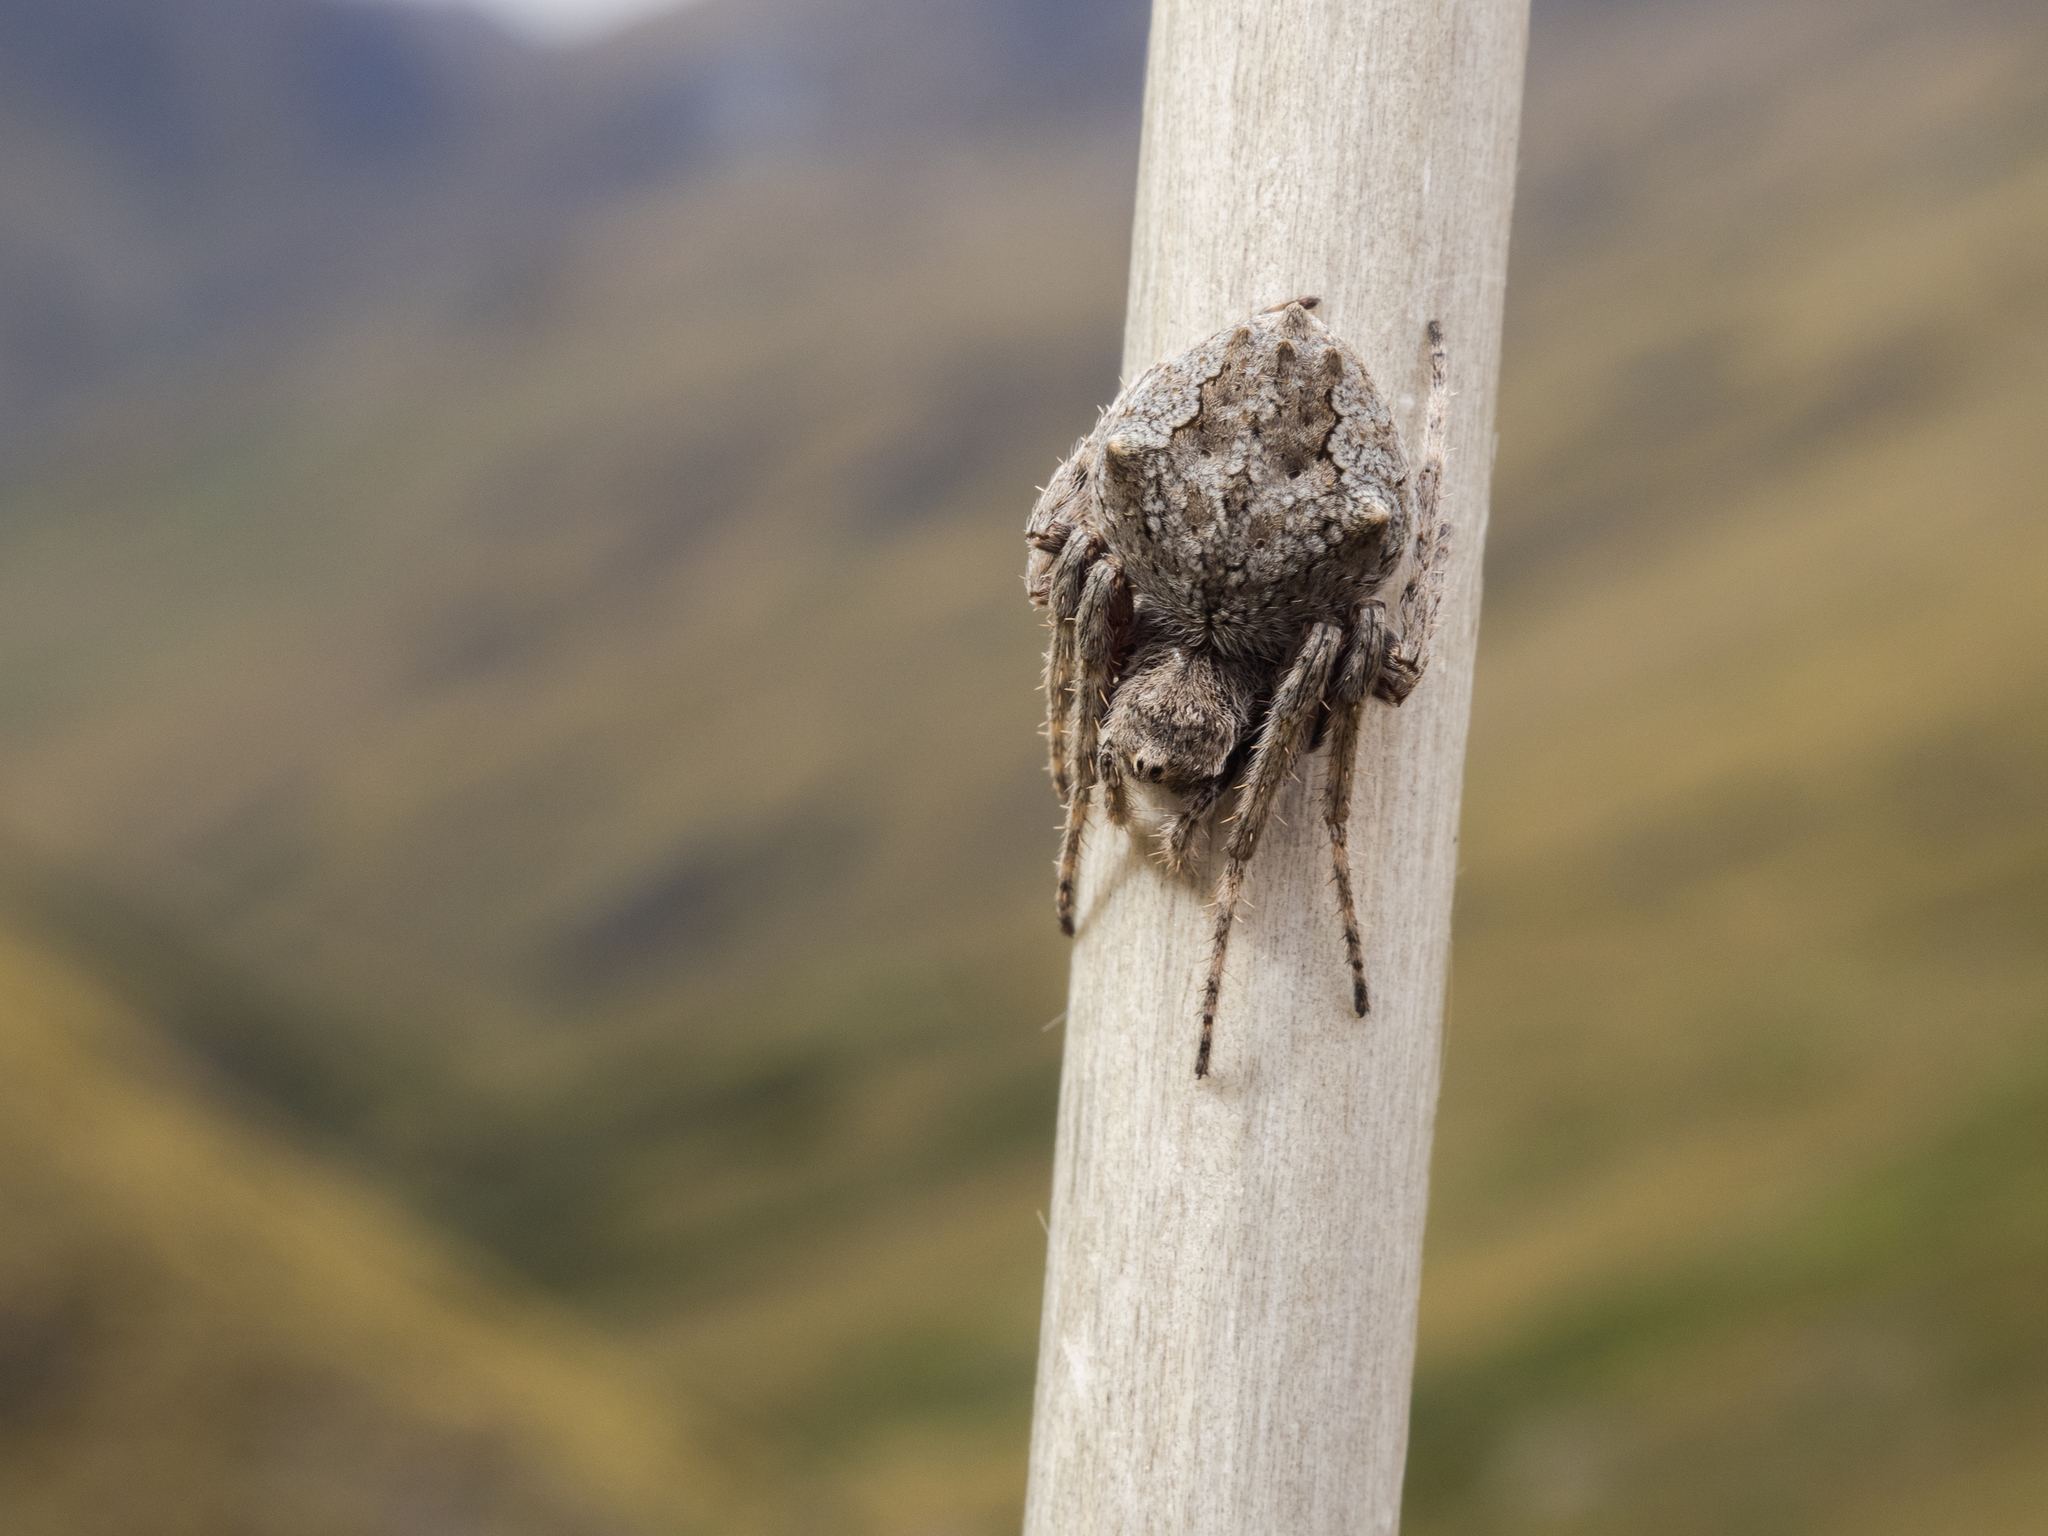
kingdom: Animalia
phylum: Arthropoda
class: Arachnida
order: Araneae
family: Araneidae
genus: Eriophora
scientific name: Eriophora pustulosa
